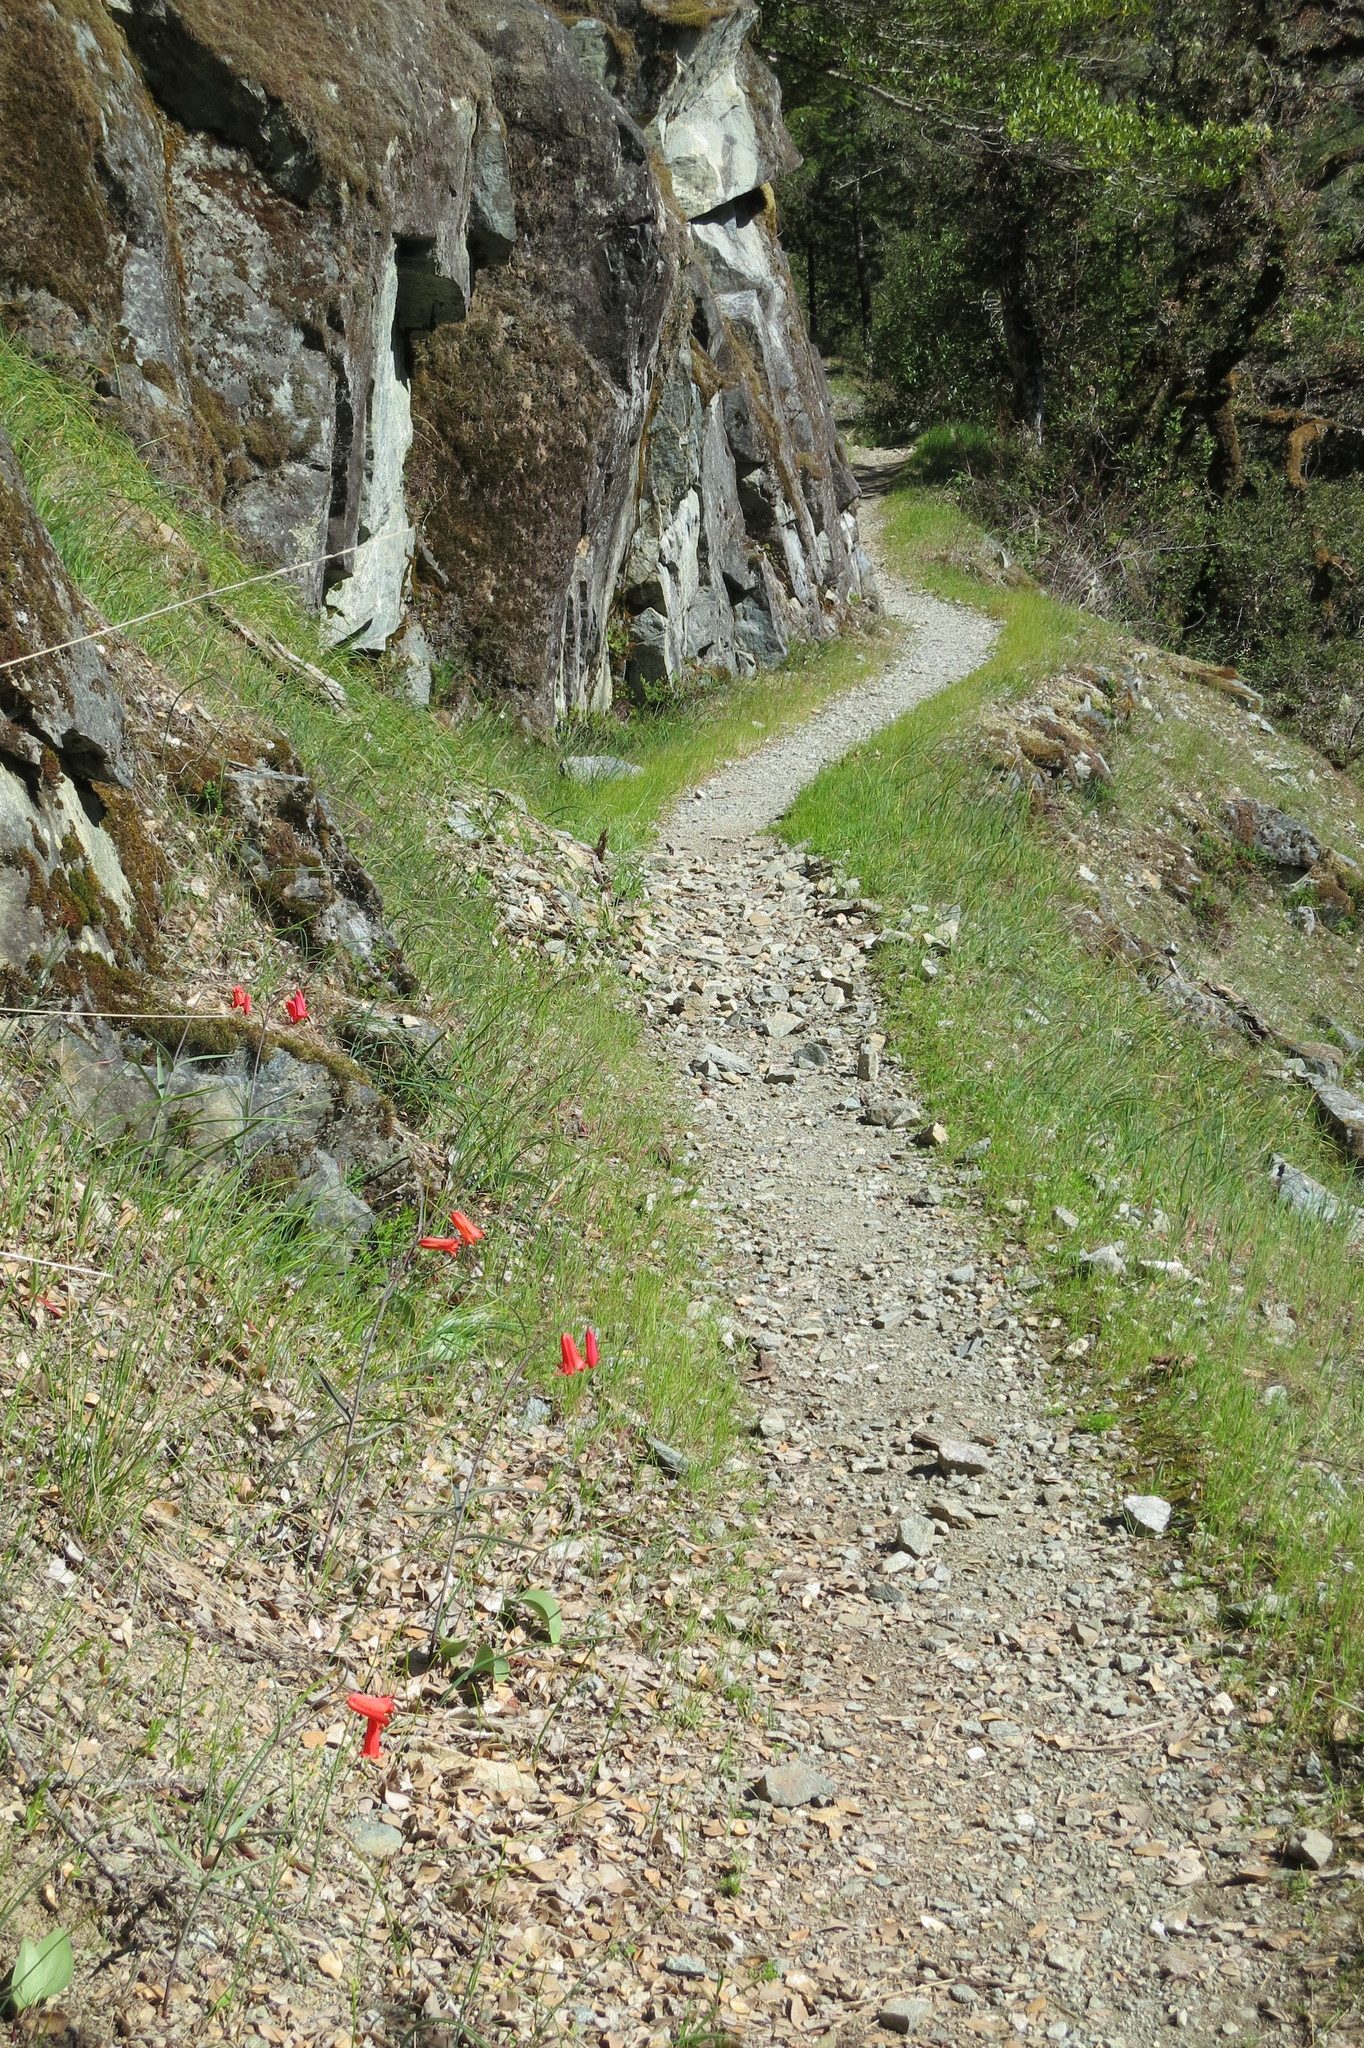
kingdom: Plantae
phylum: Tracheophyta
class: Liliopsida
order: Liliales
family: Liliaceae
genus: Fritillaria
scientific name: Fritillaria recurva
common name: Scarlet fritillary
